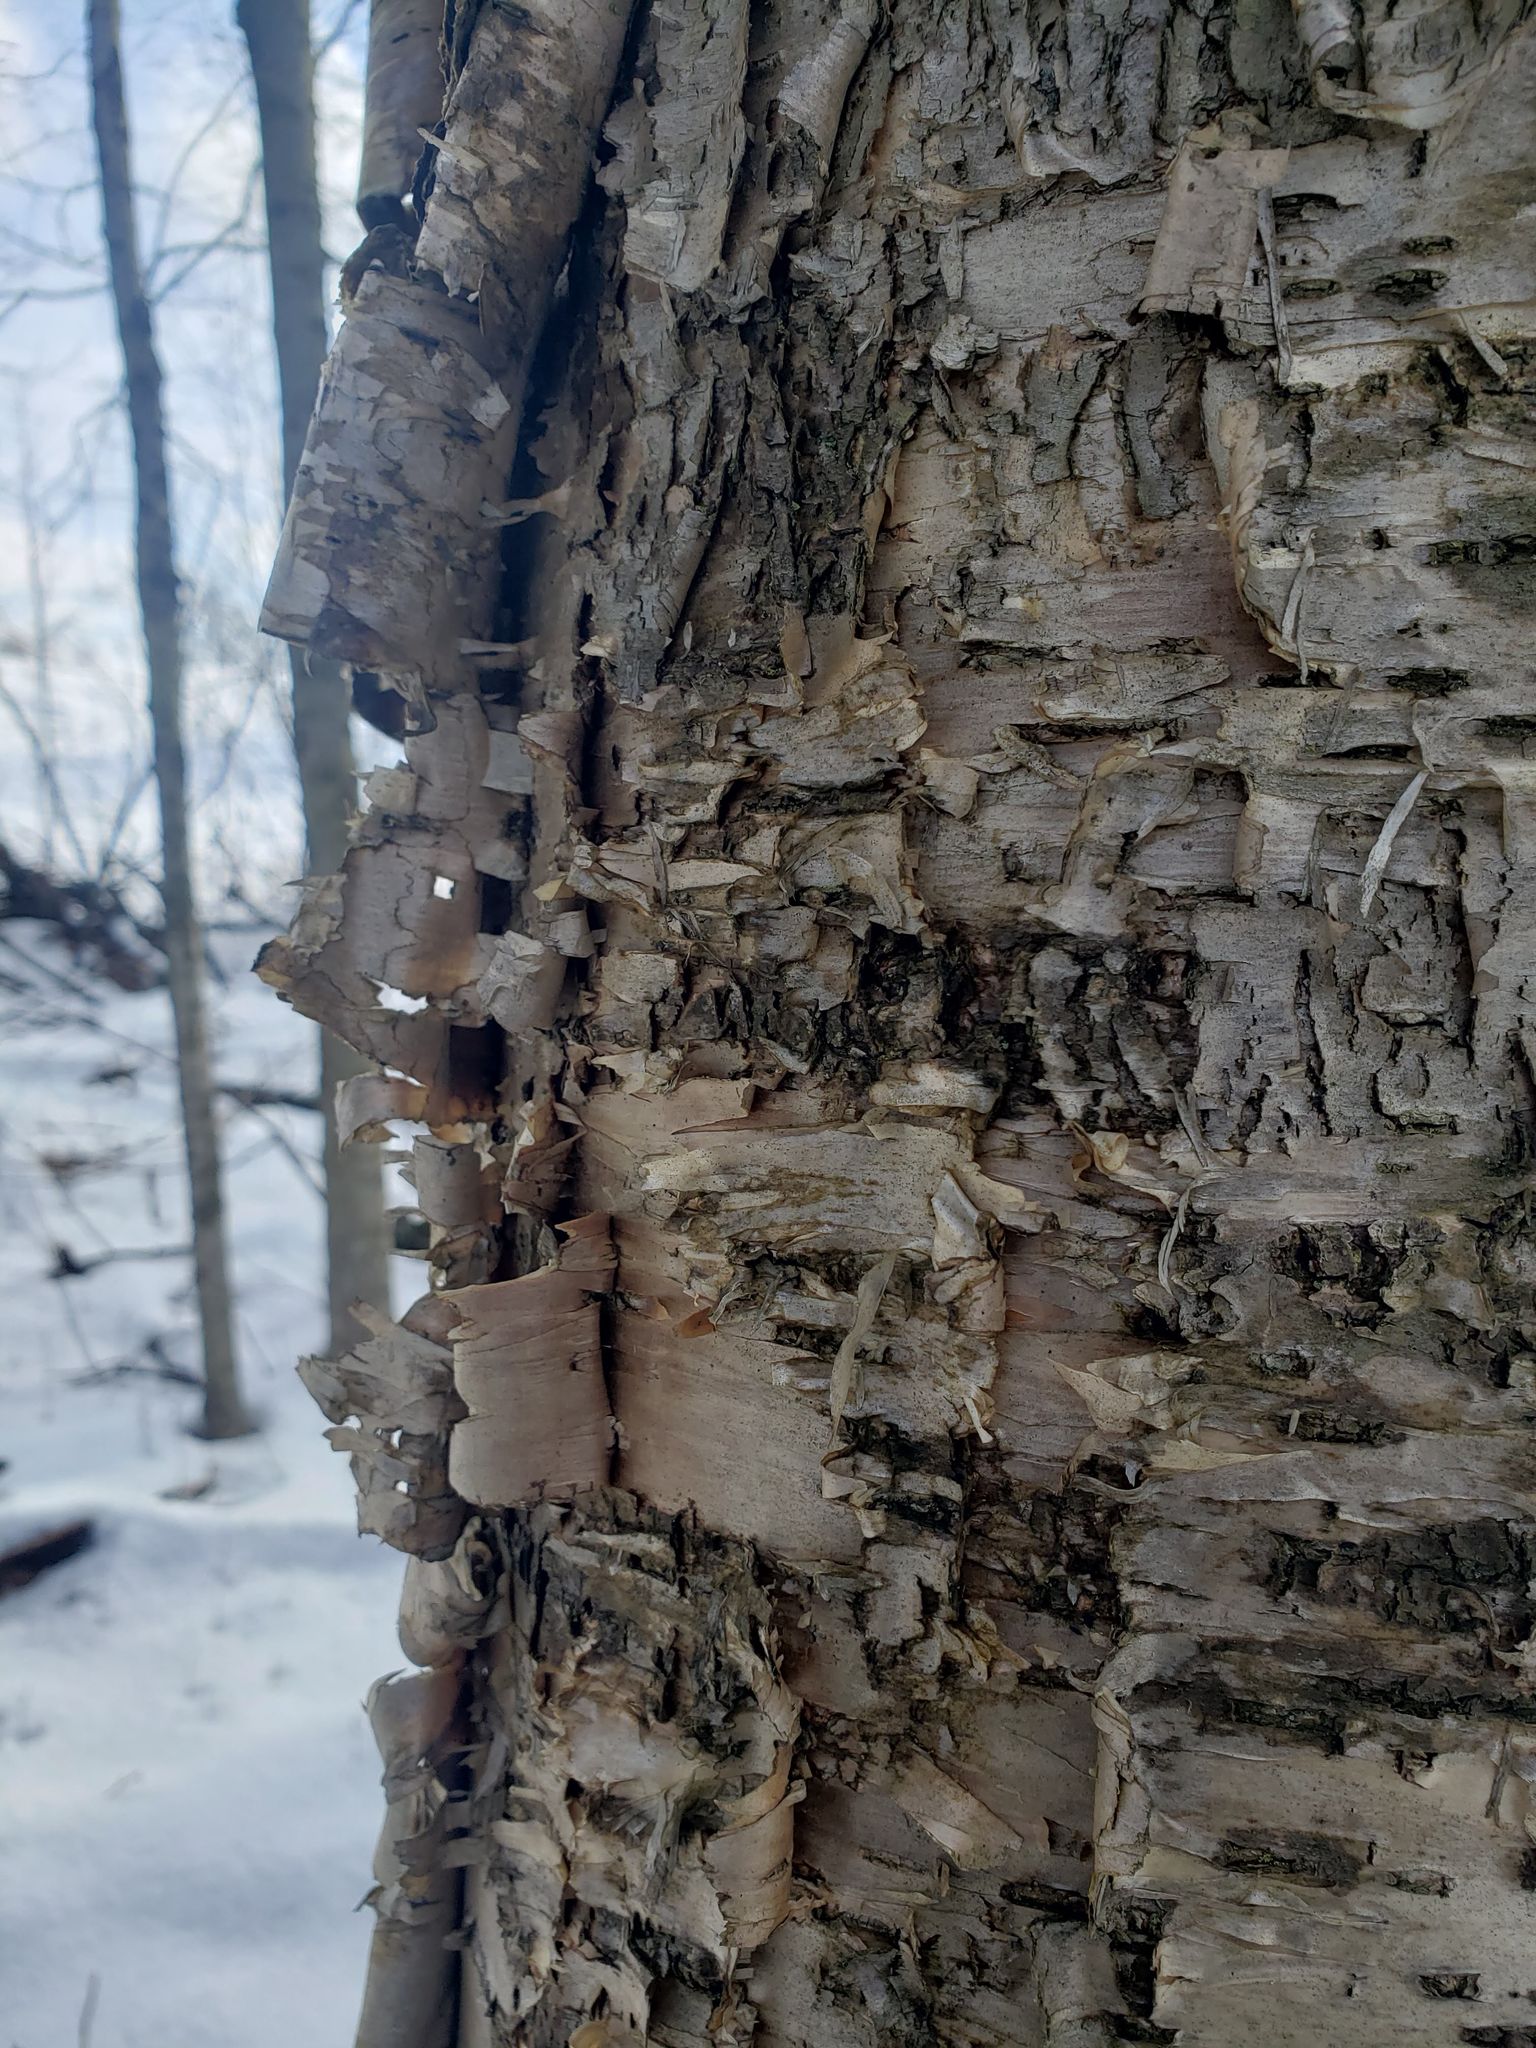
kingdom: Plantae
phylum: Tracheophyta
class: Magnoliopsida
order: Fagales
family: Betulaceae
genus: Betula
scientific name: Betula alleghaniensis
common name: Yellow birch
